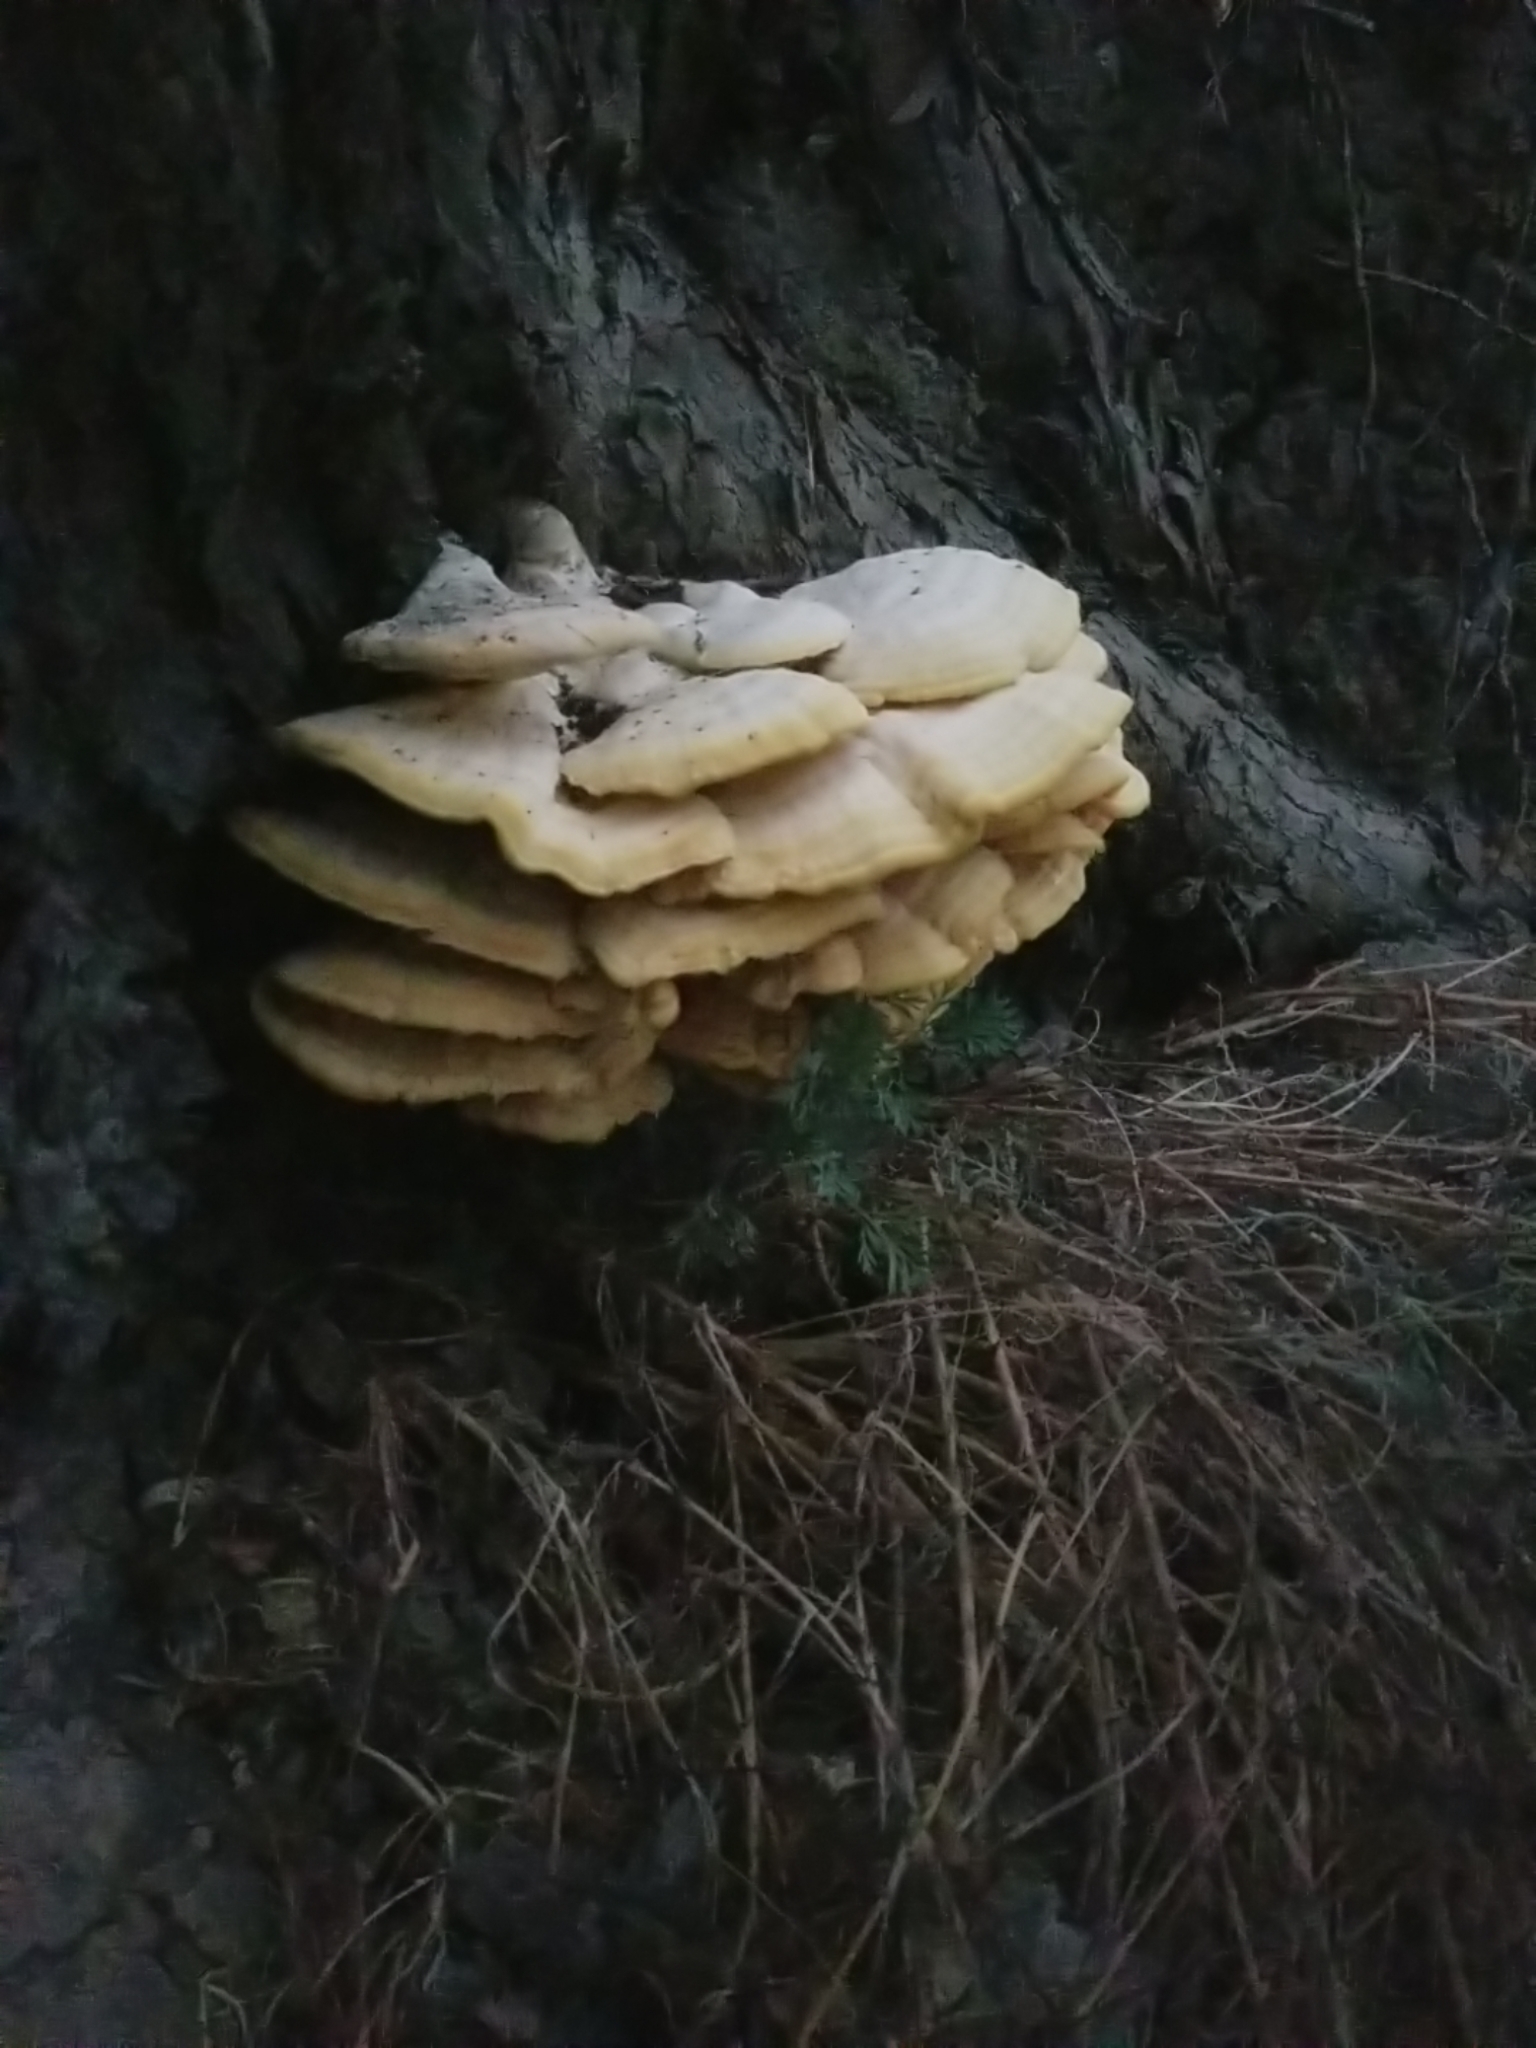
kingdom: Fungi
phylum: Basidiomycota
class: Agaricomycetes
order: Polyporales
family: Laetiporaceae
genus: Laetiporus
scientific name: Laetiporus gilbertsonii
